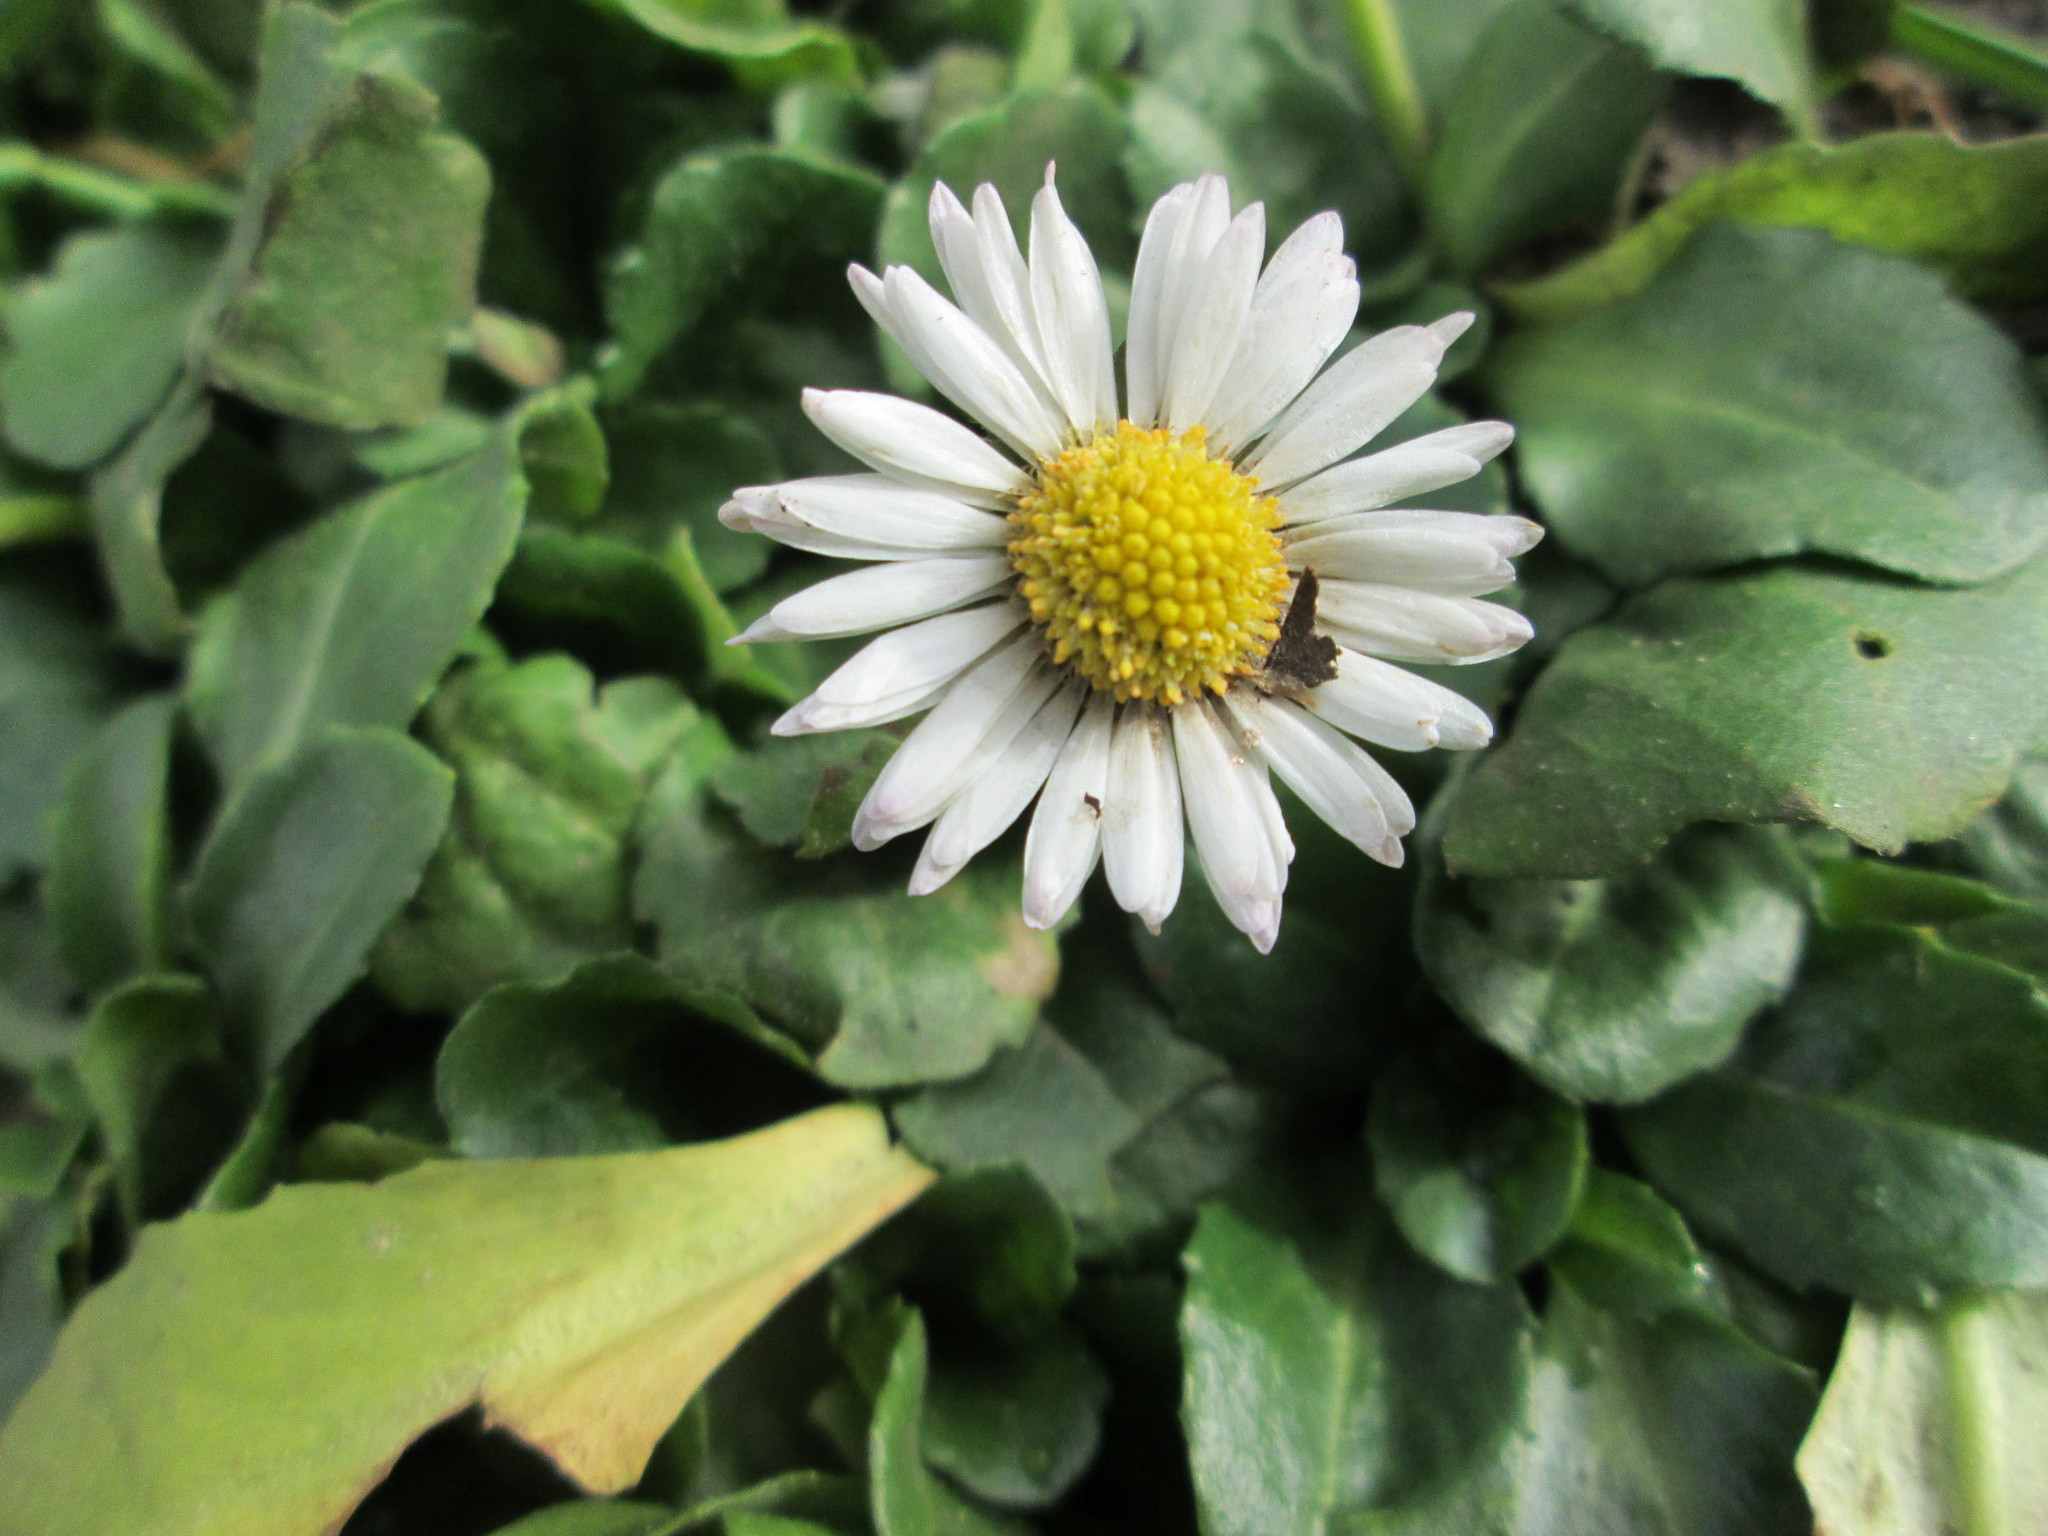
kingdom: Plantae
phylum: Tracheophyta
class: Magnoliopsida
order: Asterales
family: Asteraceae
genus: Bellis
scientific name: Bellis perennis
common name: Lawndaisy
